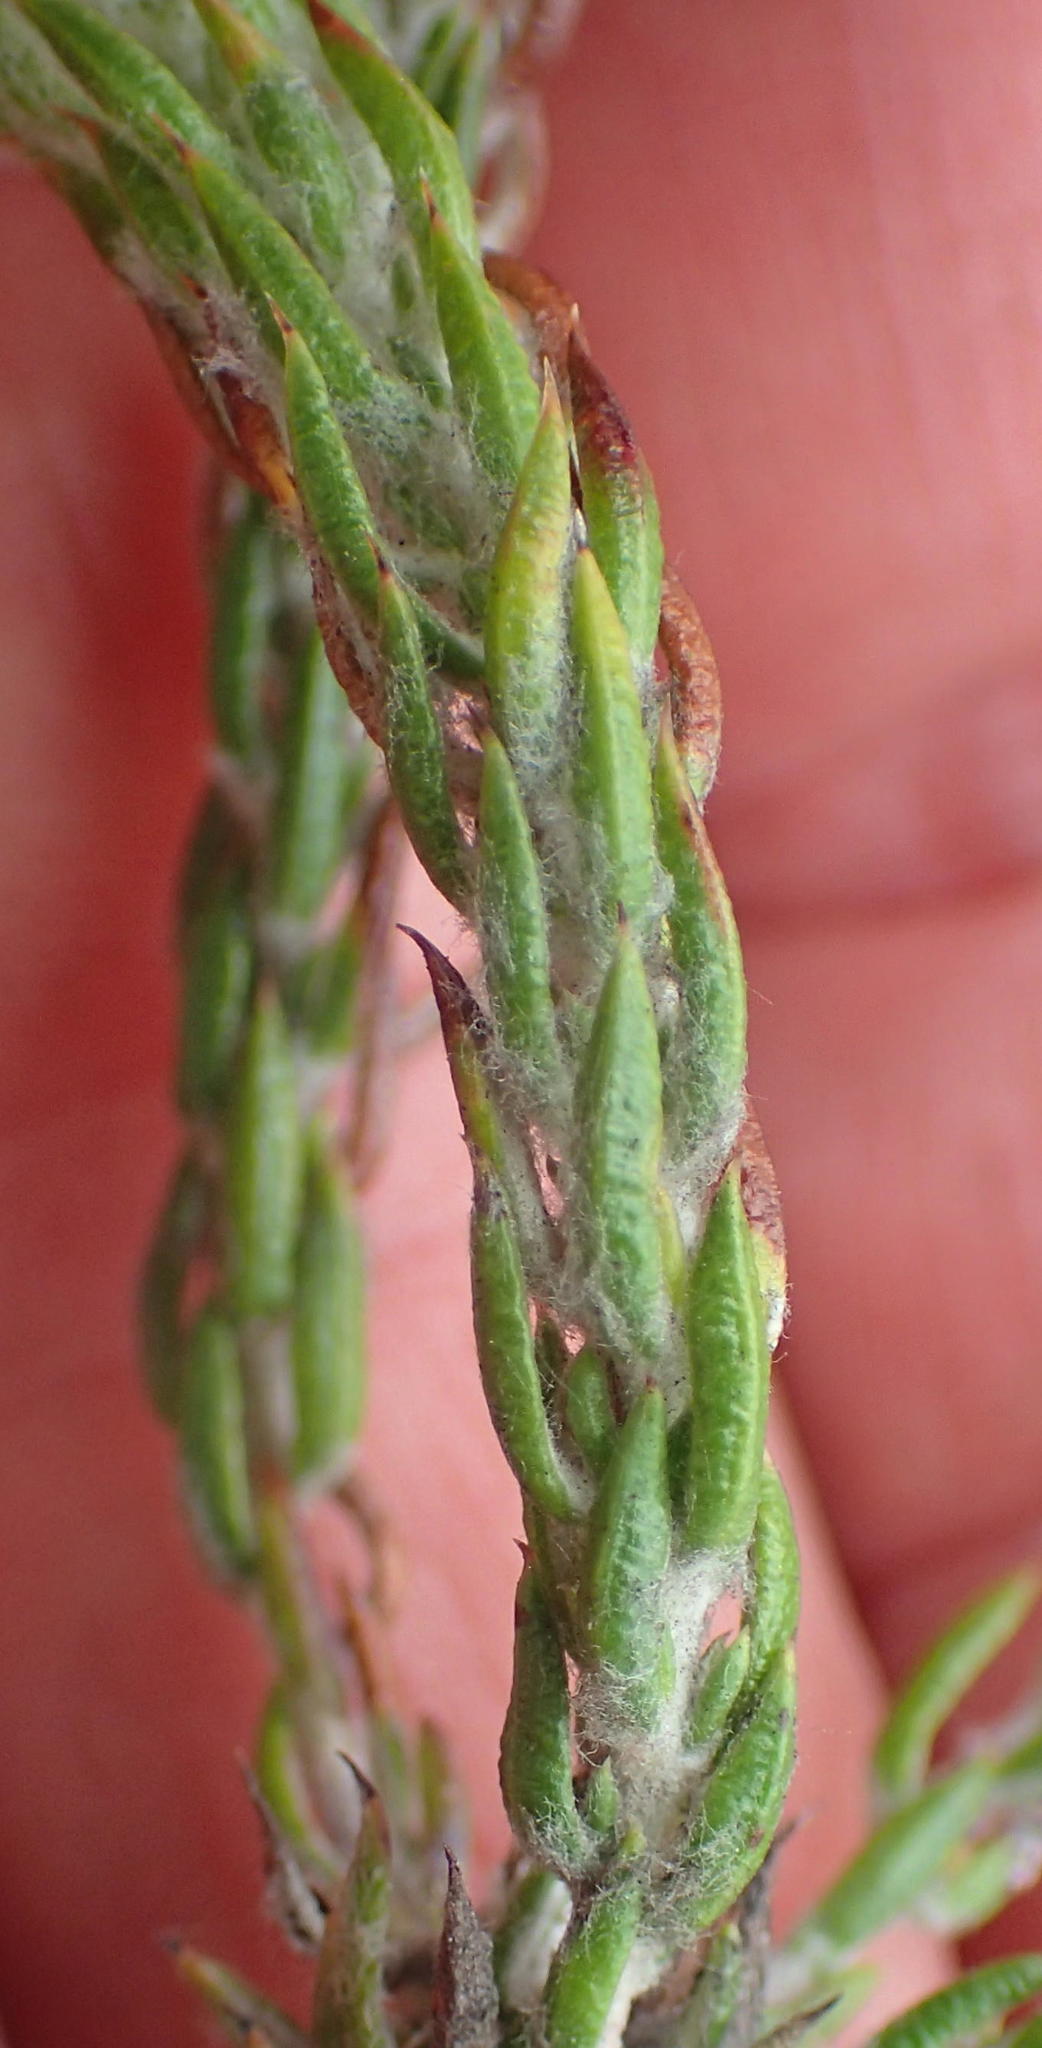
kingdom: Plantae
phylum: Tracheophyta
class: Magnoliopsida
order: Asterales
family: Asteraceae
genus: Metalasia
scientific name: Metalasia pungens
